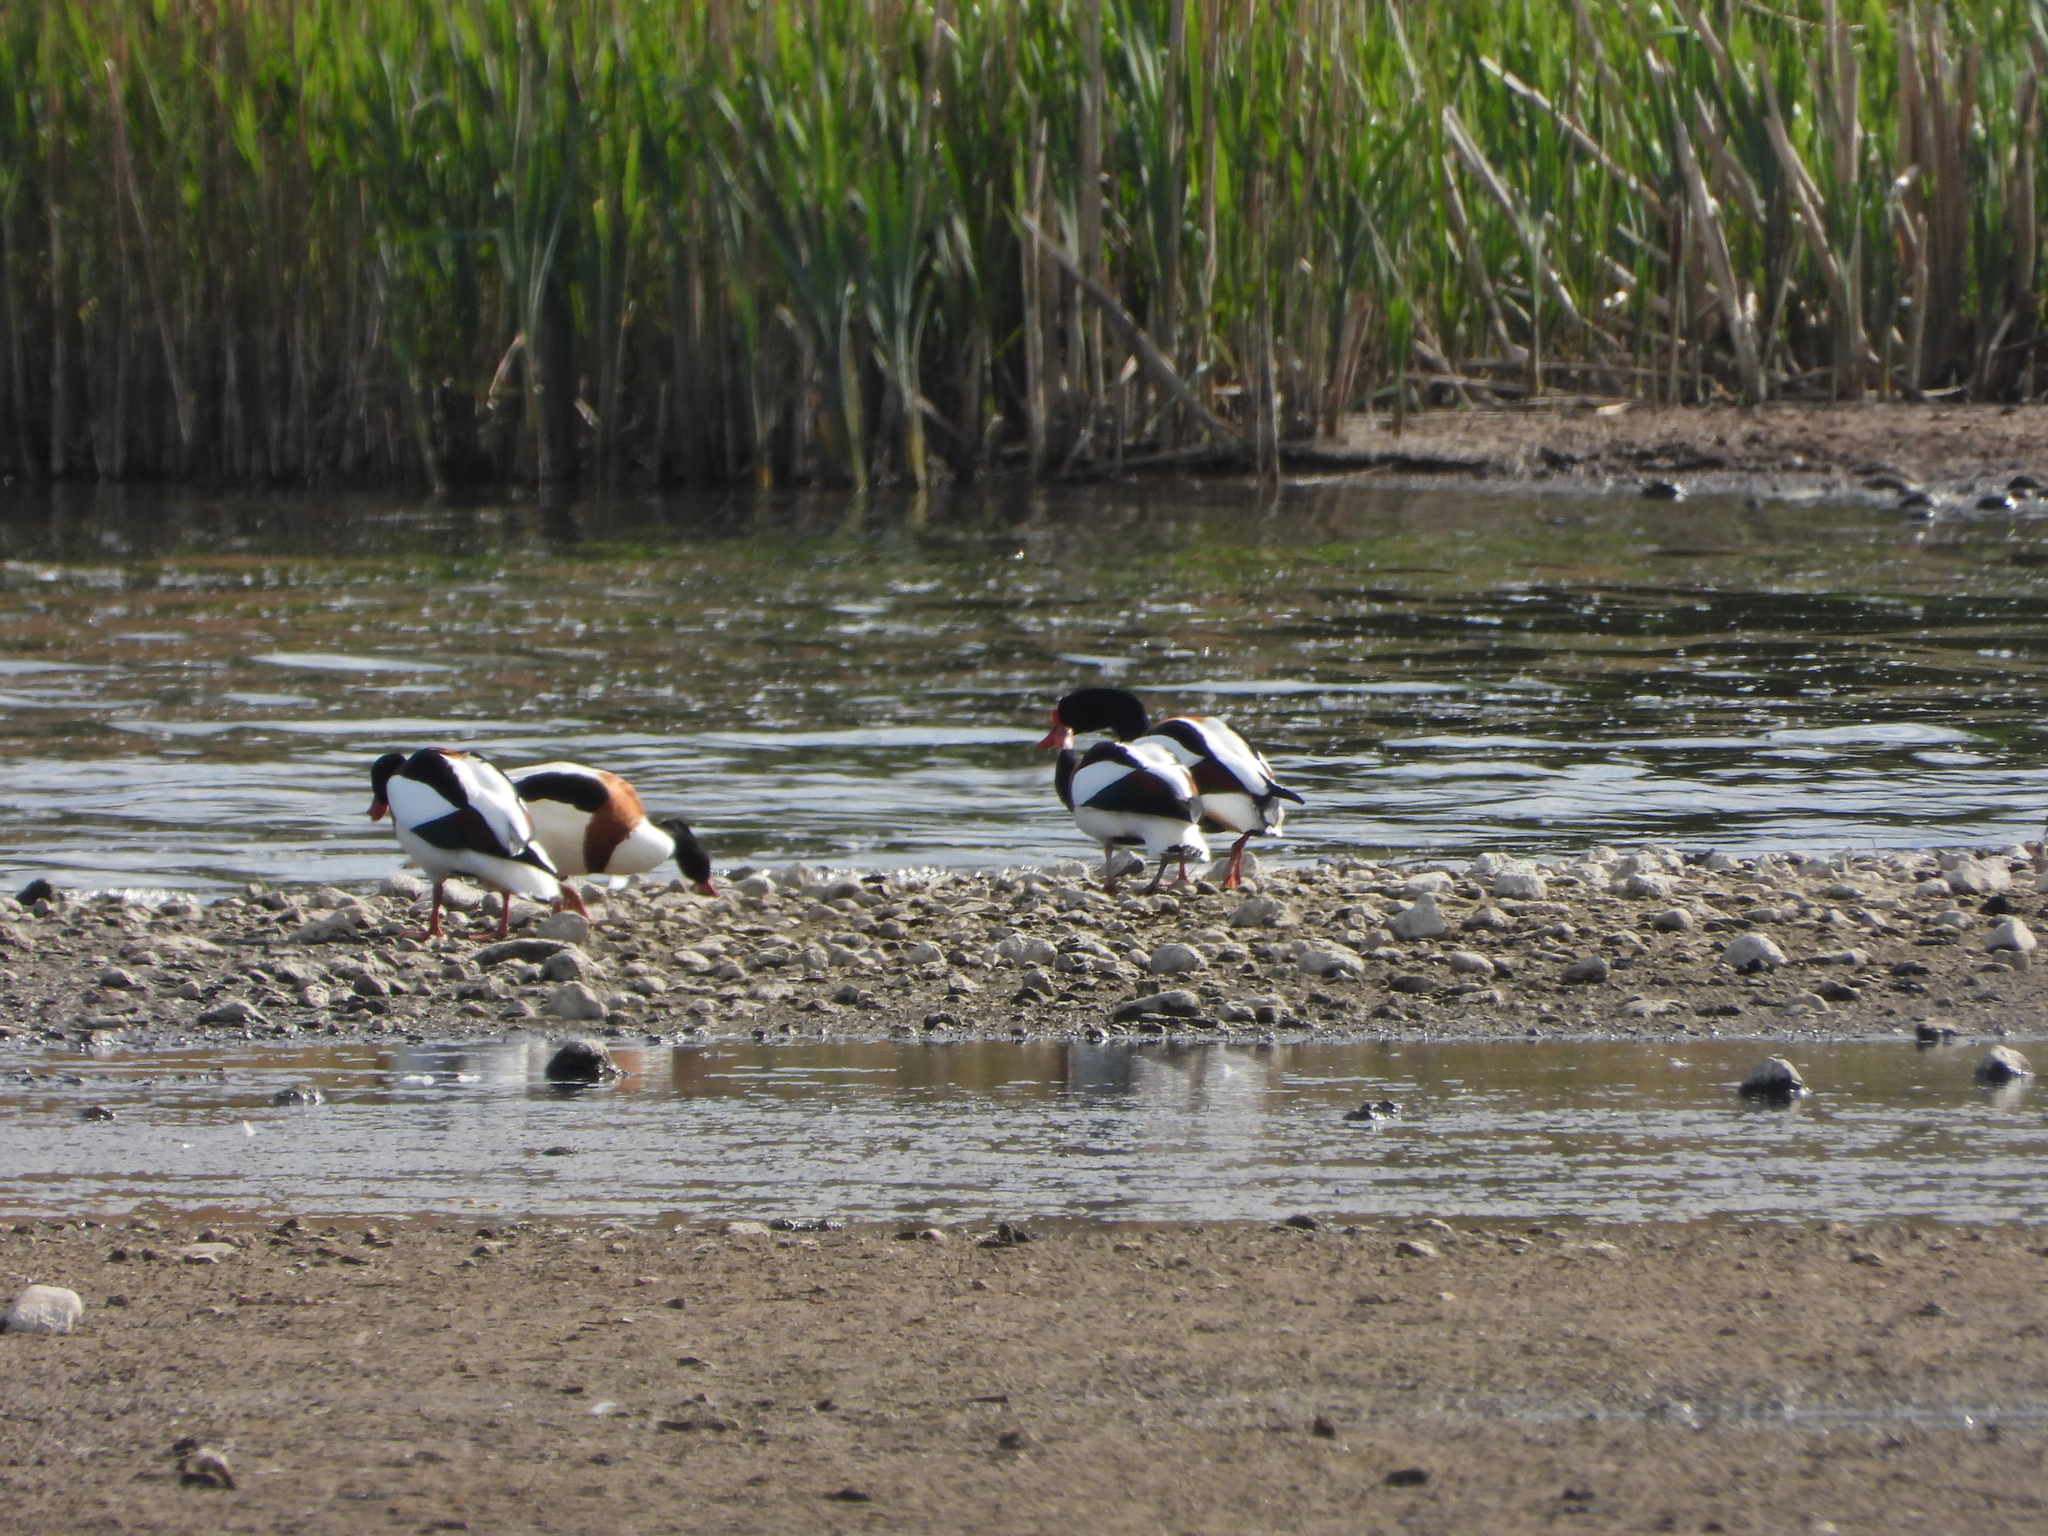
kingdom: Animalia
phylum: Chordata
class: Aves
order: Anseriformes
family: Anatidae
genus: Tadorna
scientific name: Tadorna tadorna
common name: Common shelduck
